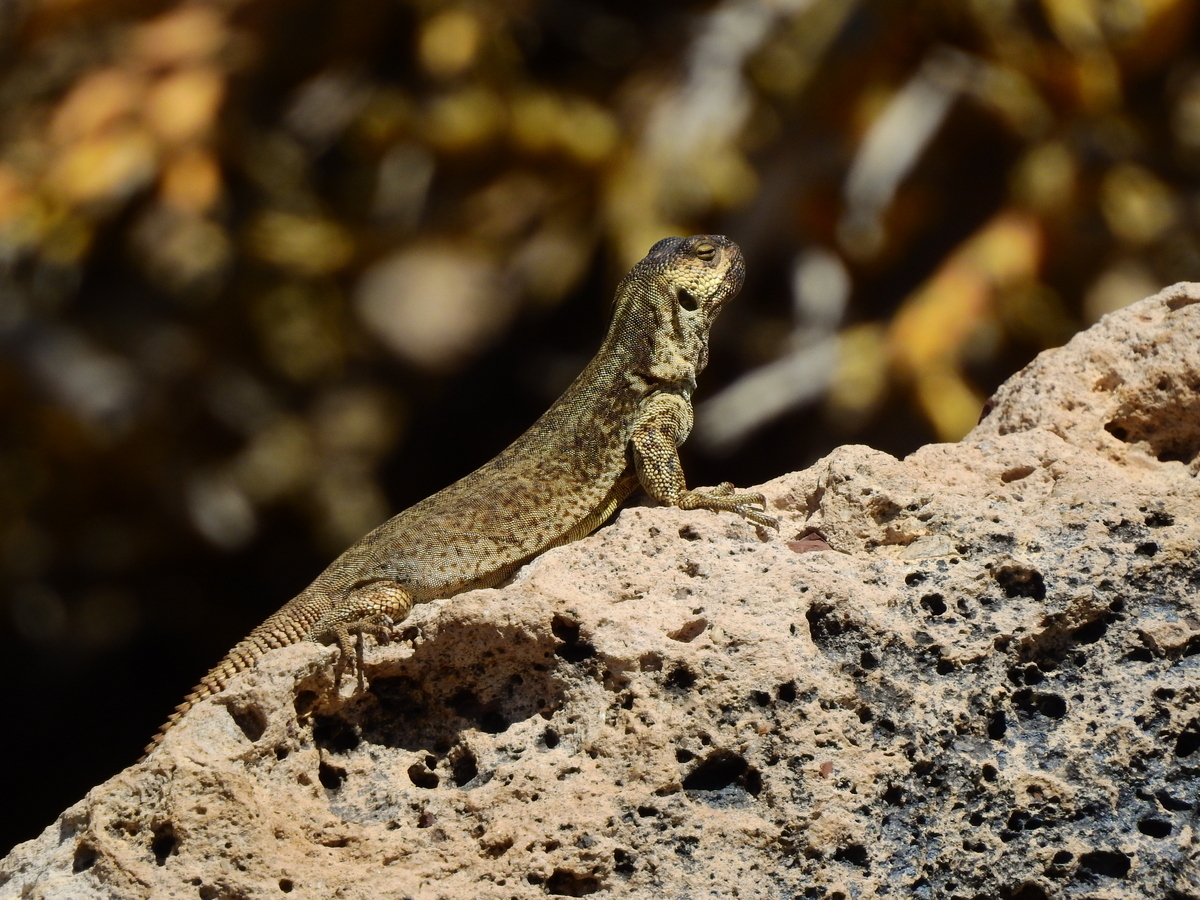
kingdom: Animalia
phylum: Chordata
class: Squamata
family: Liolaemidae
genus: Phymaturus
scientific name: Phymaturus verdugo
